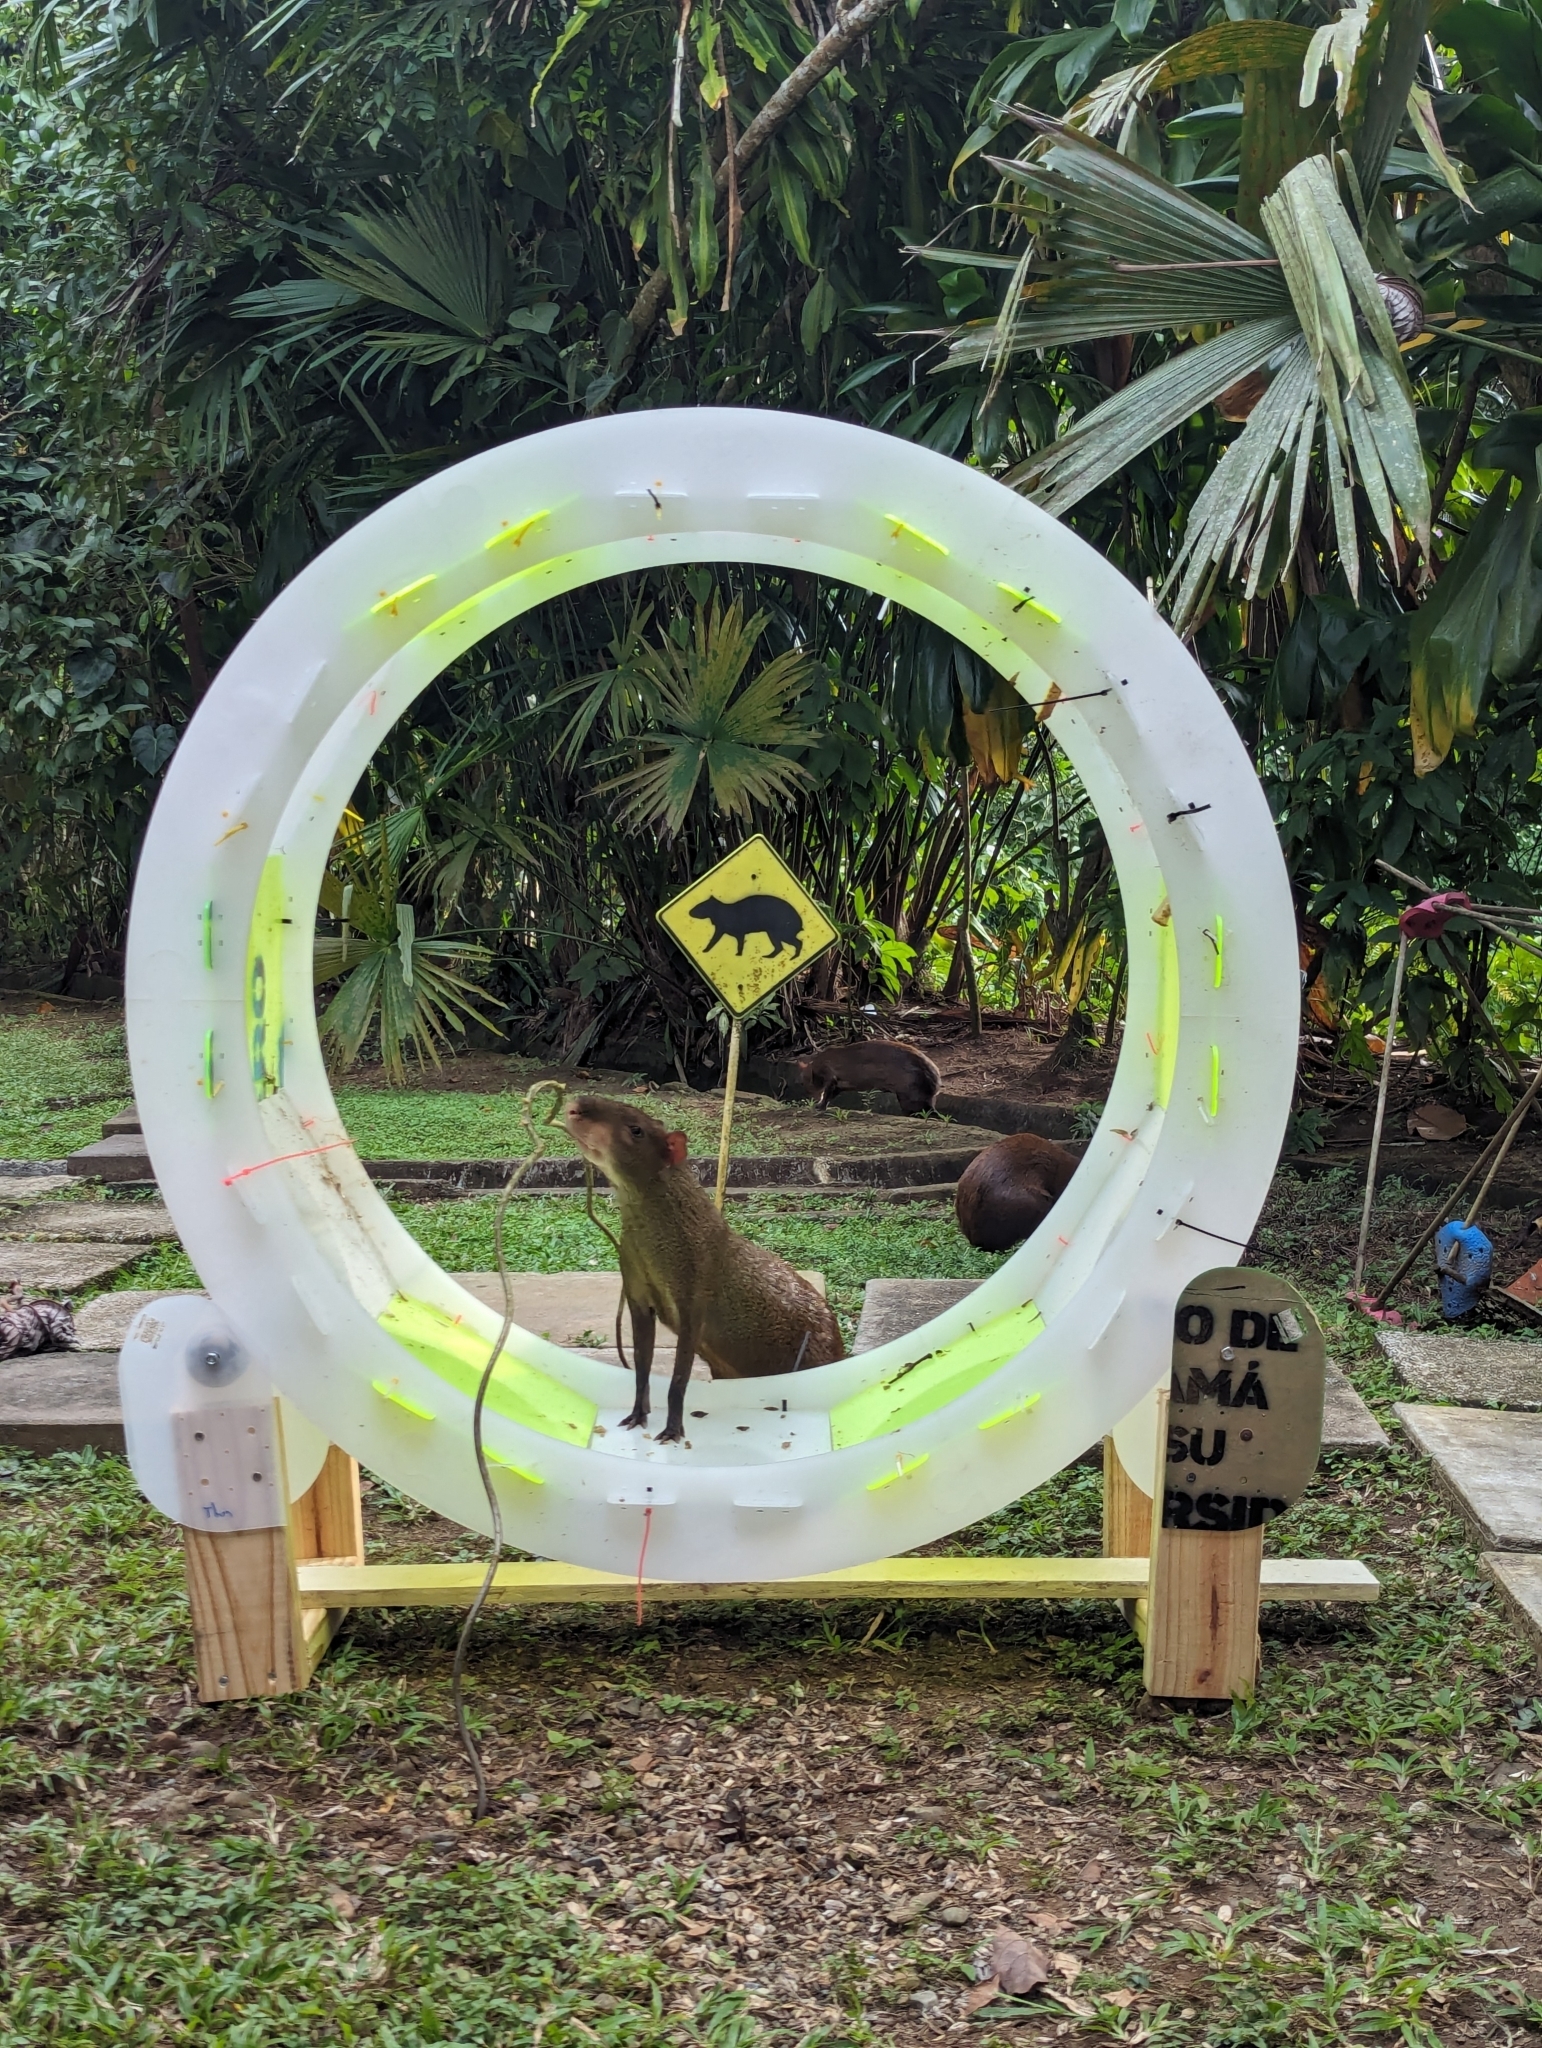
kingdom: Animalia
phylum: Chordata
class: Mammalia
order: Rodentia
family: Dasyproctidae
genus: Dasyprocta
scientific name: Dasyprocta punctata
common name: Central american agouti
